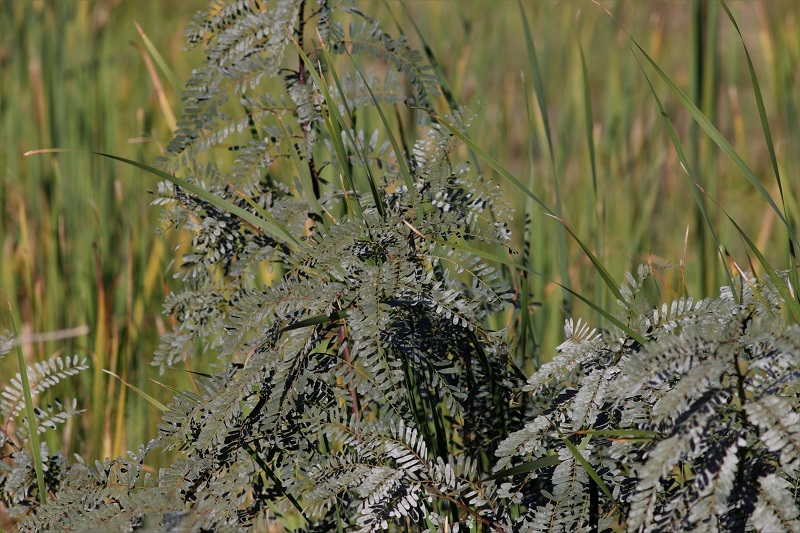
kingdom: Plantae
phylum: Tracheophyta
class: Magnoliopsida
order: Fabales
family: Fabaceae
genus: Sesbania
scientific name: Sesbania punicea
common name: Rattlebox
